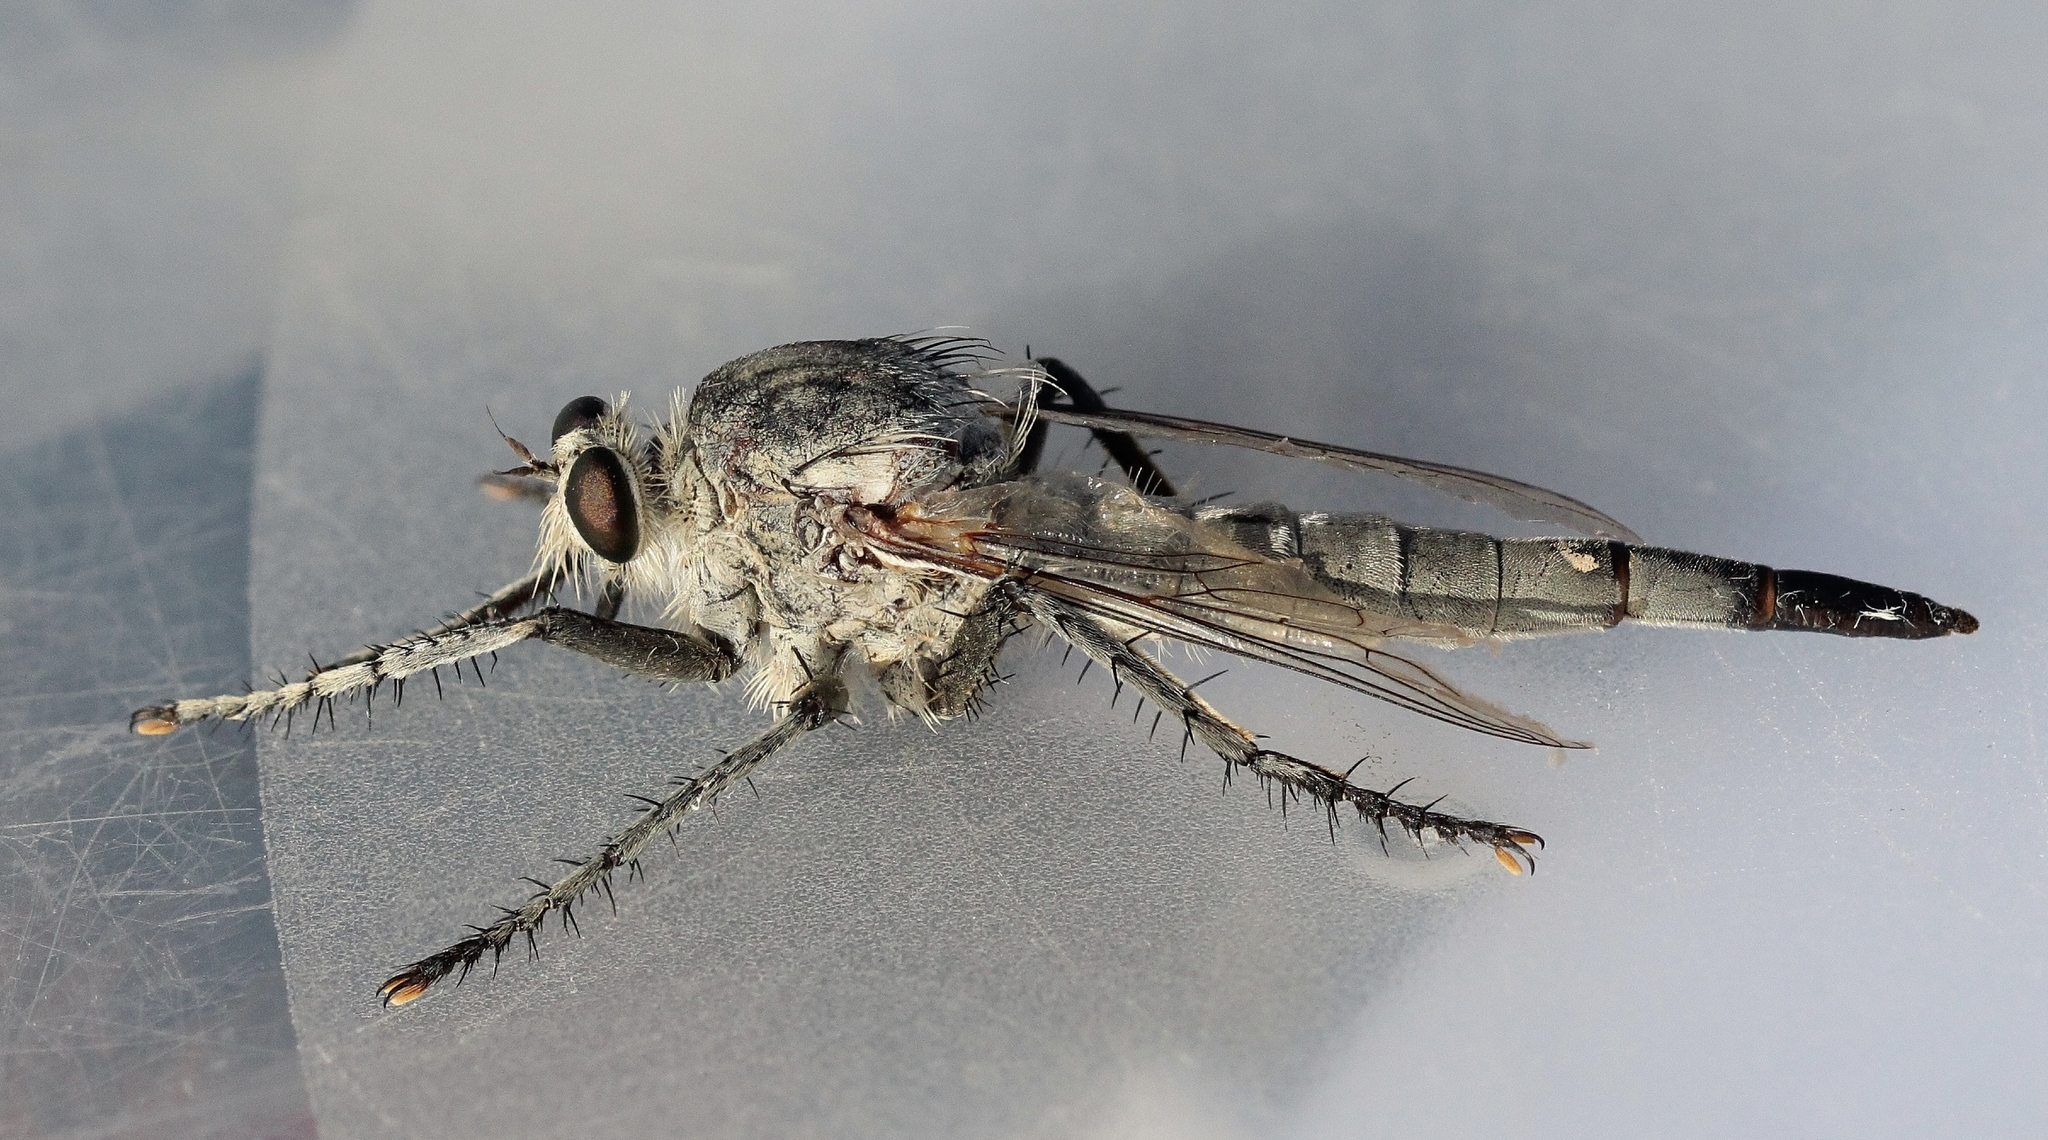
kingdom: Animalia
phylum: Arthropoda
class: Insecta
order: Diptera
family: Asilidae
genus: Satanas
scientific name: Satanas gigas
